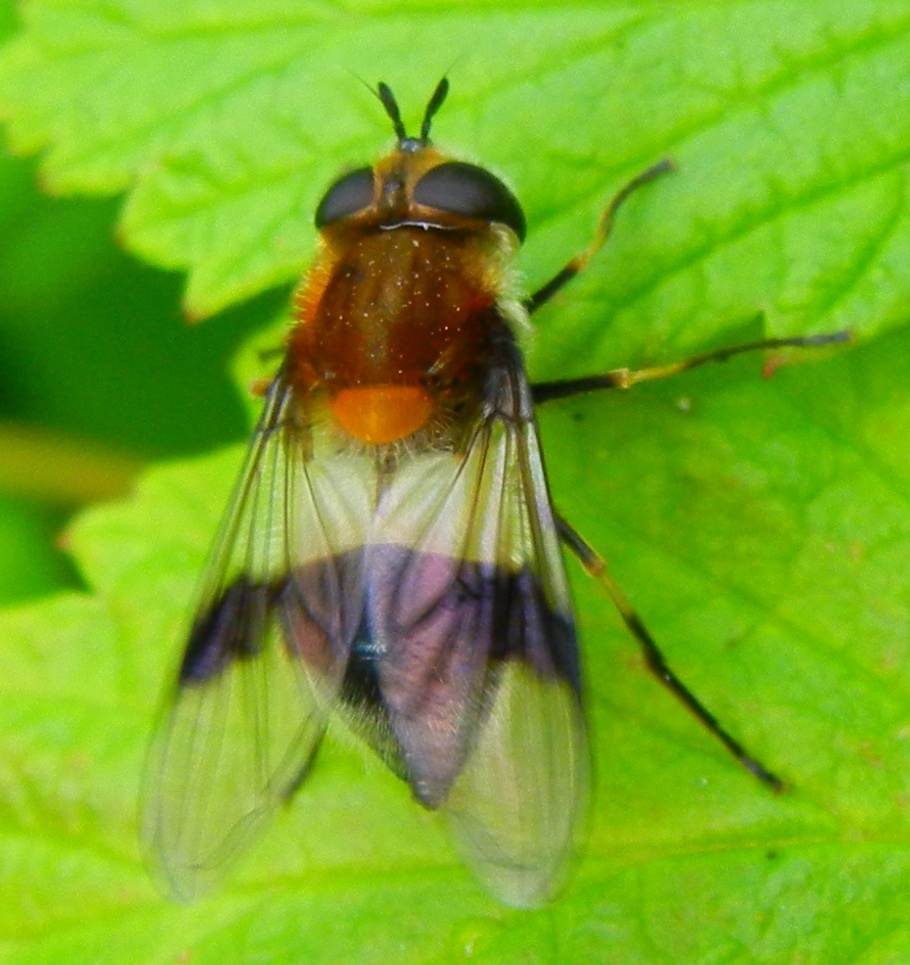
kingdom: Animalia
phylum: Arthropoda
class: Insecta
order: Diptera
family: Syrphidae
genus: Leucozona
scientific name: Leucozona lucorum
